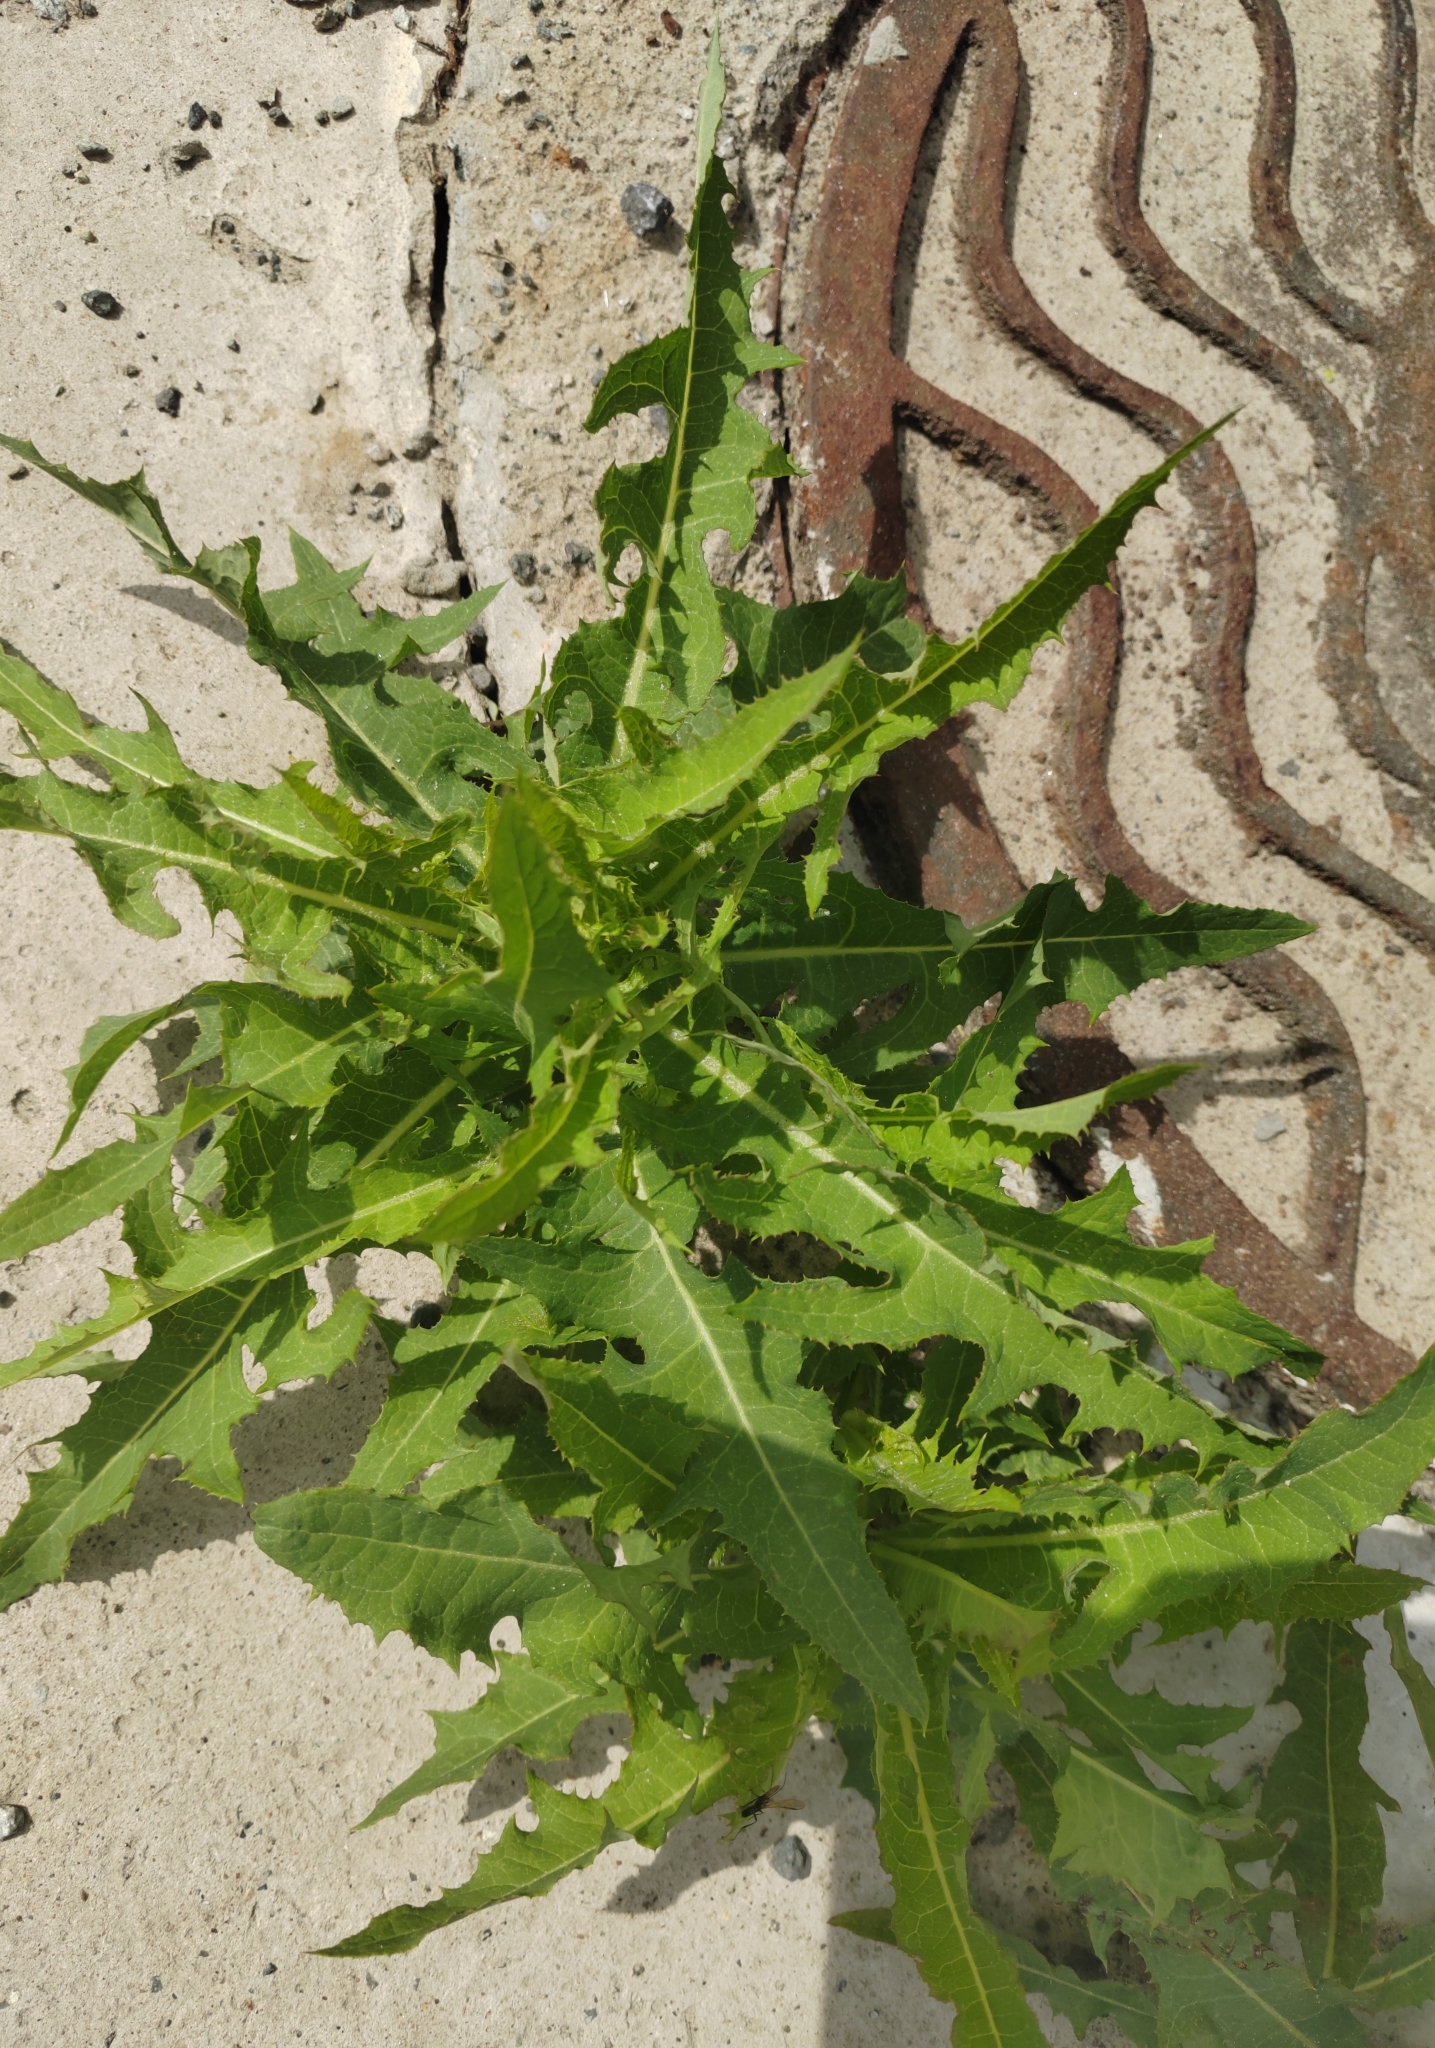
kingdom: Plantae
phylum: Tracheophyta
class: Magnoliopsida
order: Asterales
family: Asteraceae
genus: Sonchus
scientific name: Sonchus arvensis
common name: Perennial sow-thistle
